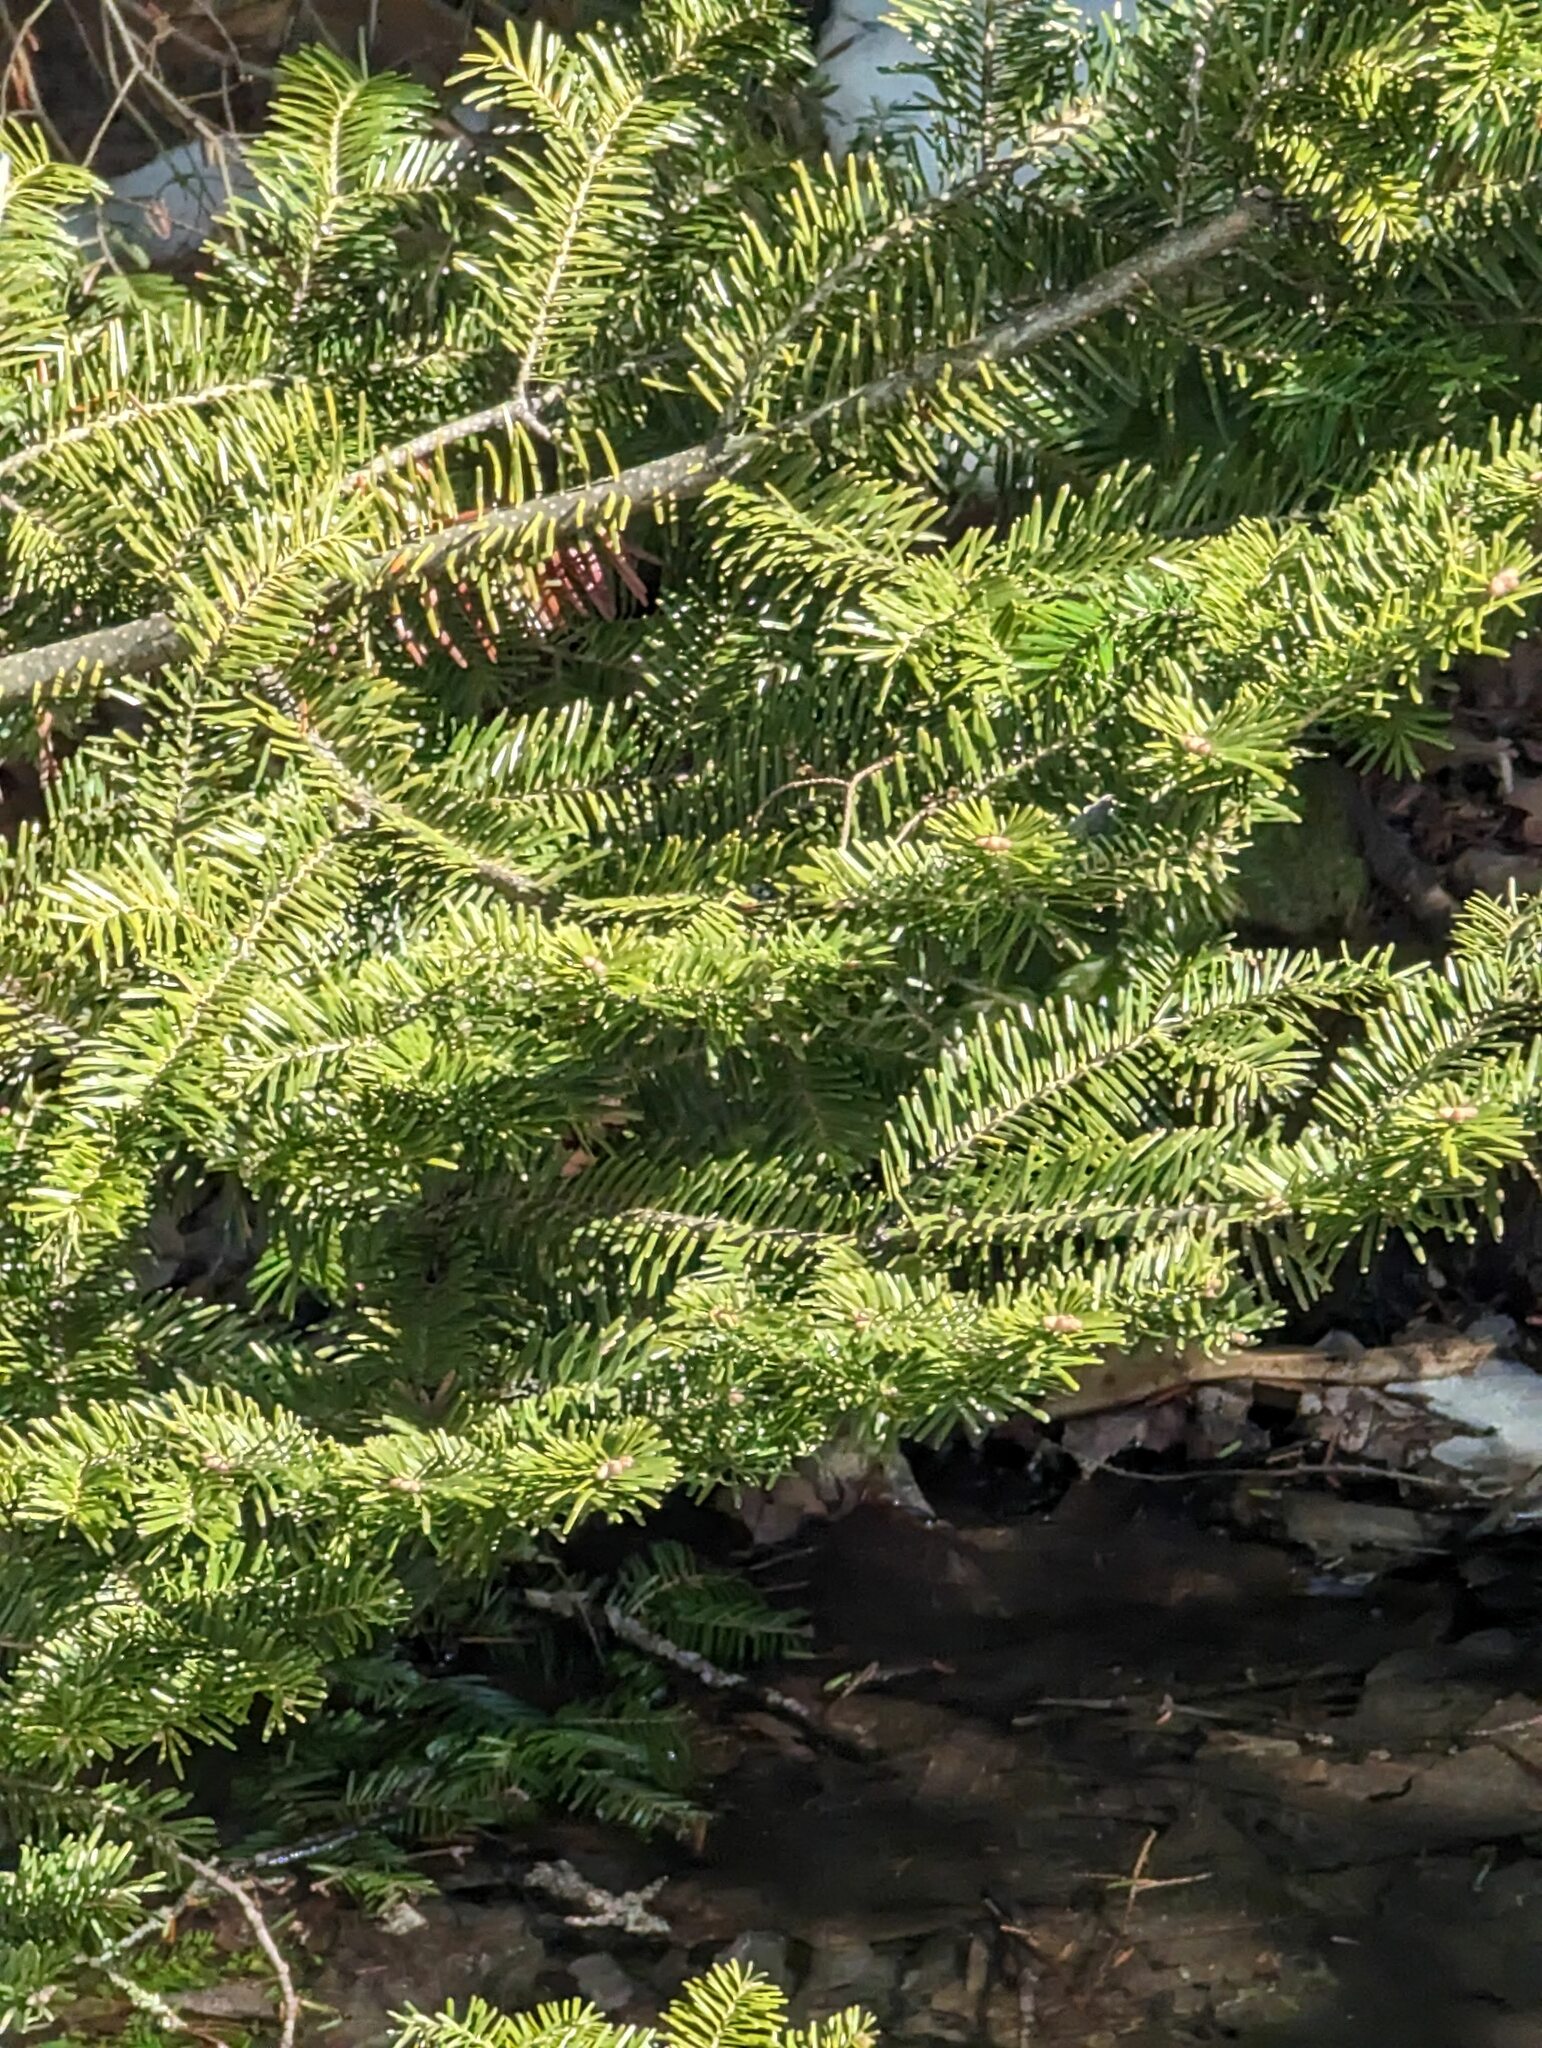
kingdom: Plantae
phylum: Tracheophyta
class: Pinopsida
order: Pinales
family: Pinaceae
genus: Abies
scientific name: Abies balsamea
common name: Balsam fir
